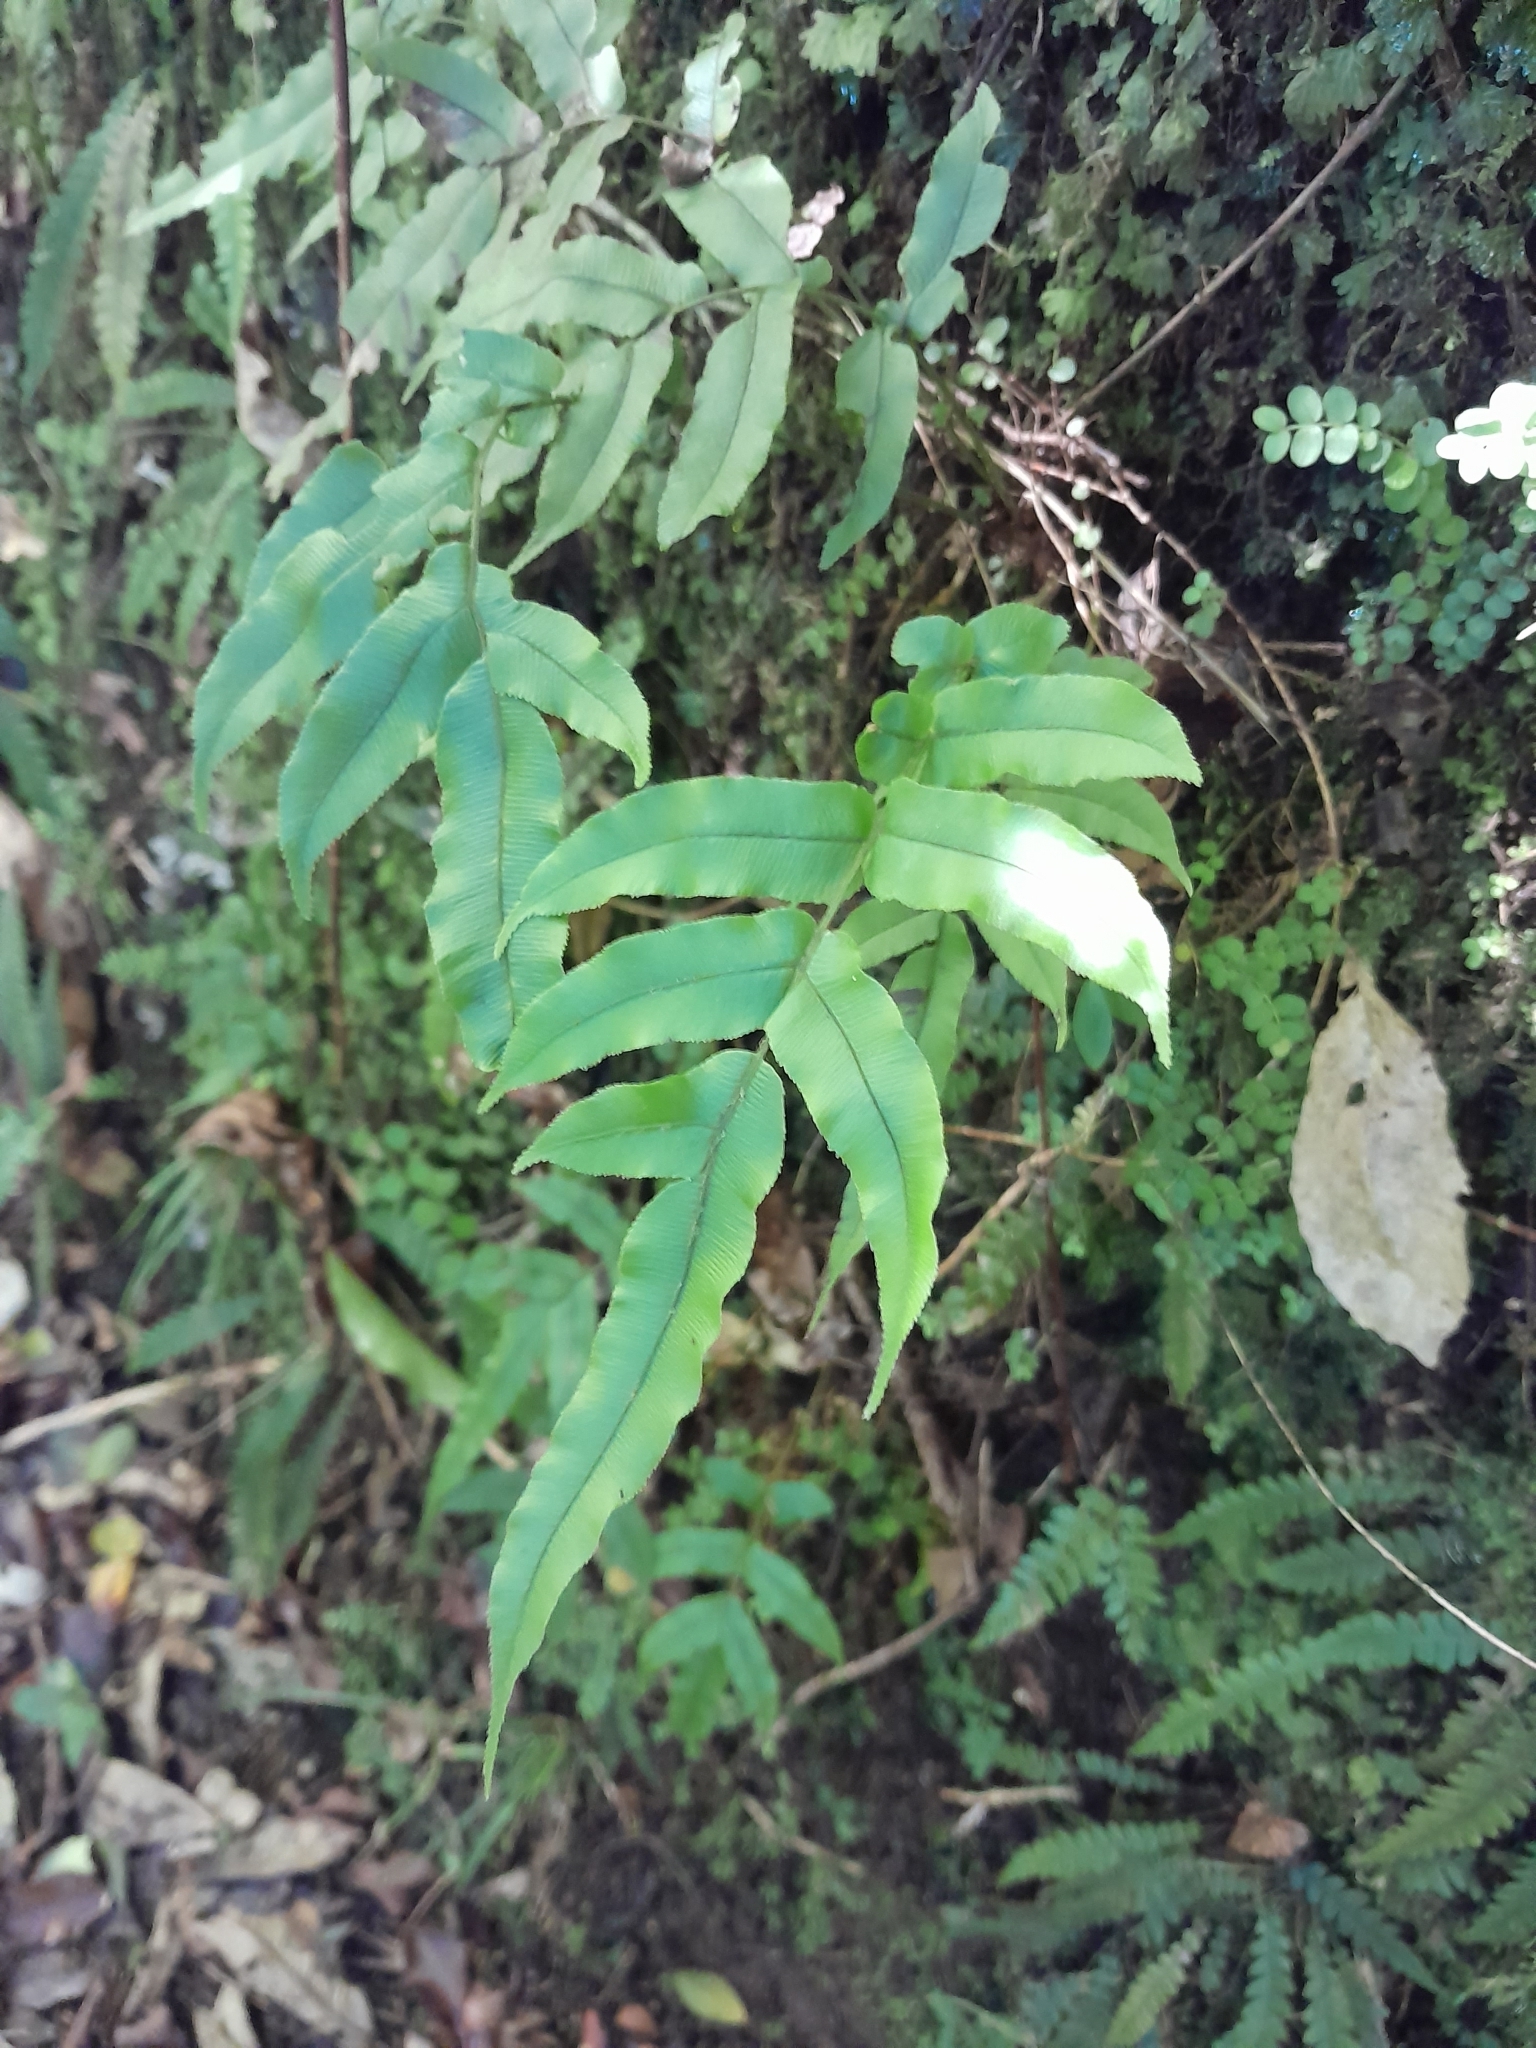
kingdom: Plantae
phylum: Tracheophyta
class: Polypodiopsida
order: Polypodiales
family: Blechnaceae
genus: Parablechnum
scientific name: Parablechnum procerum
